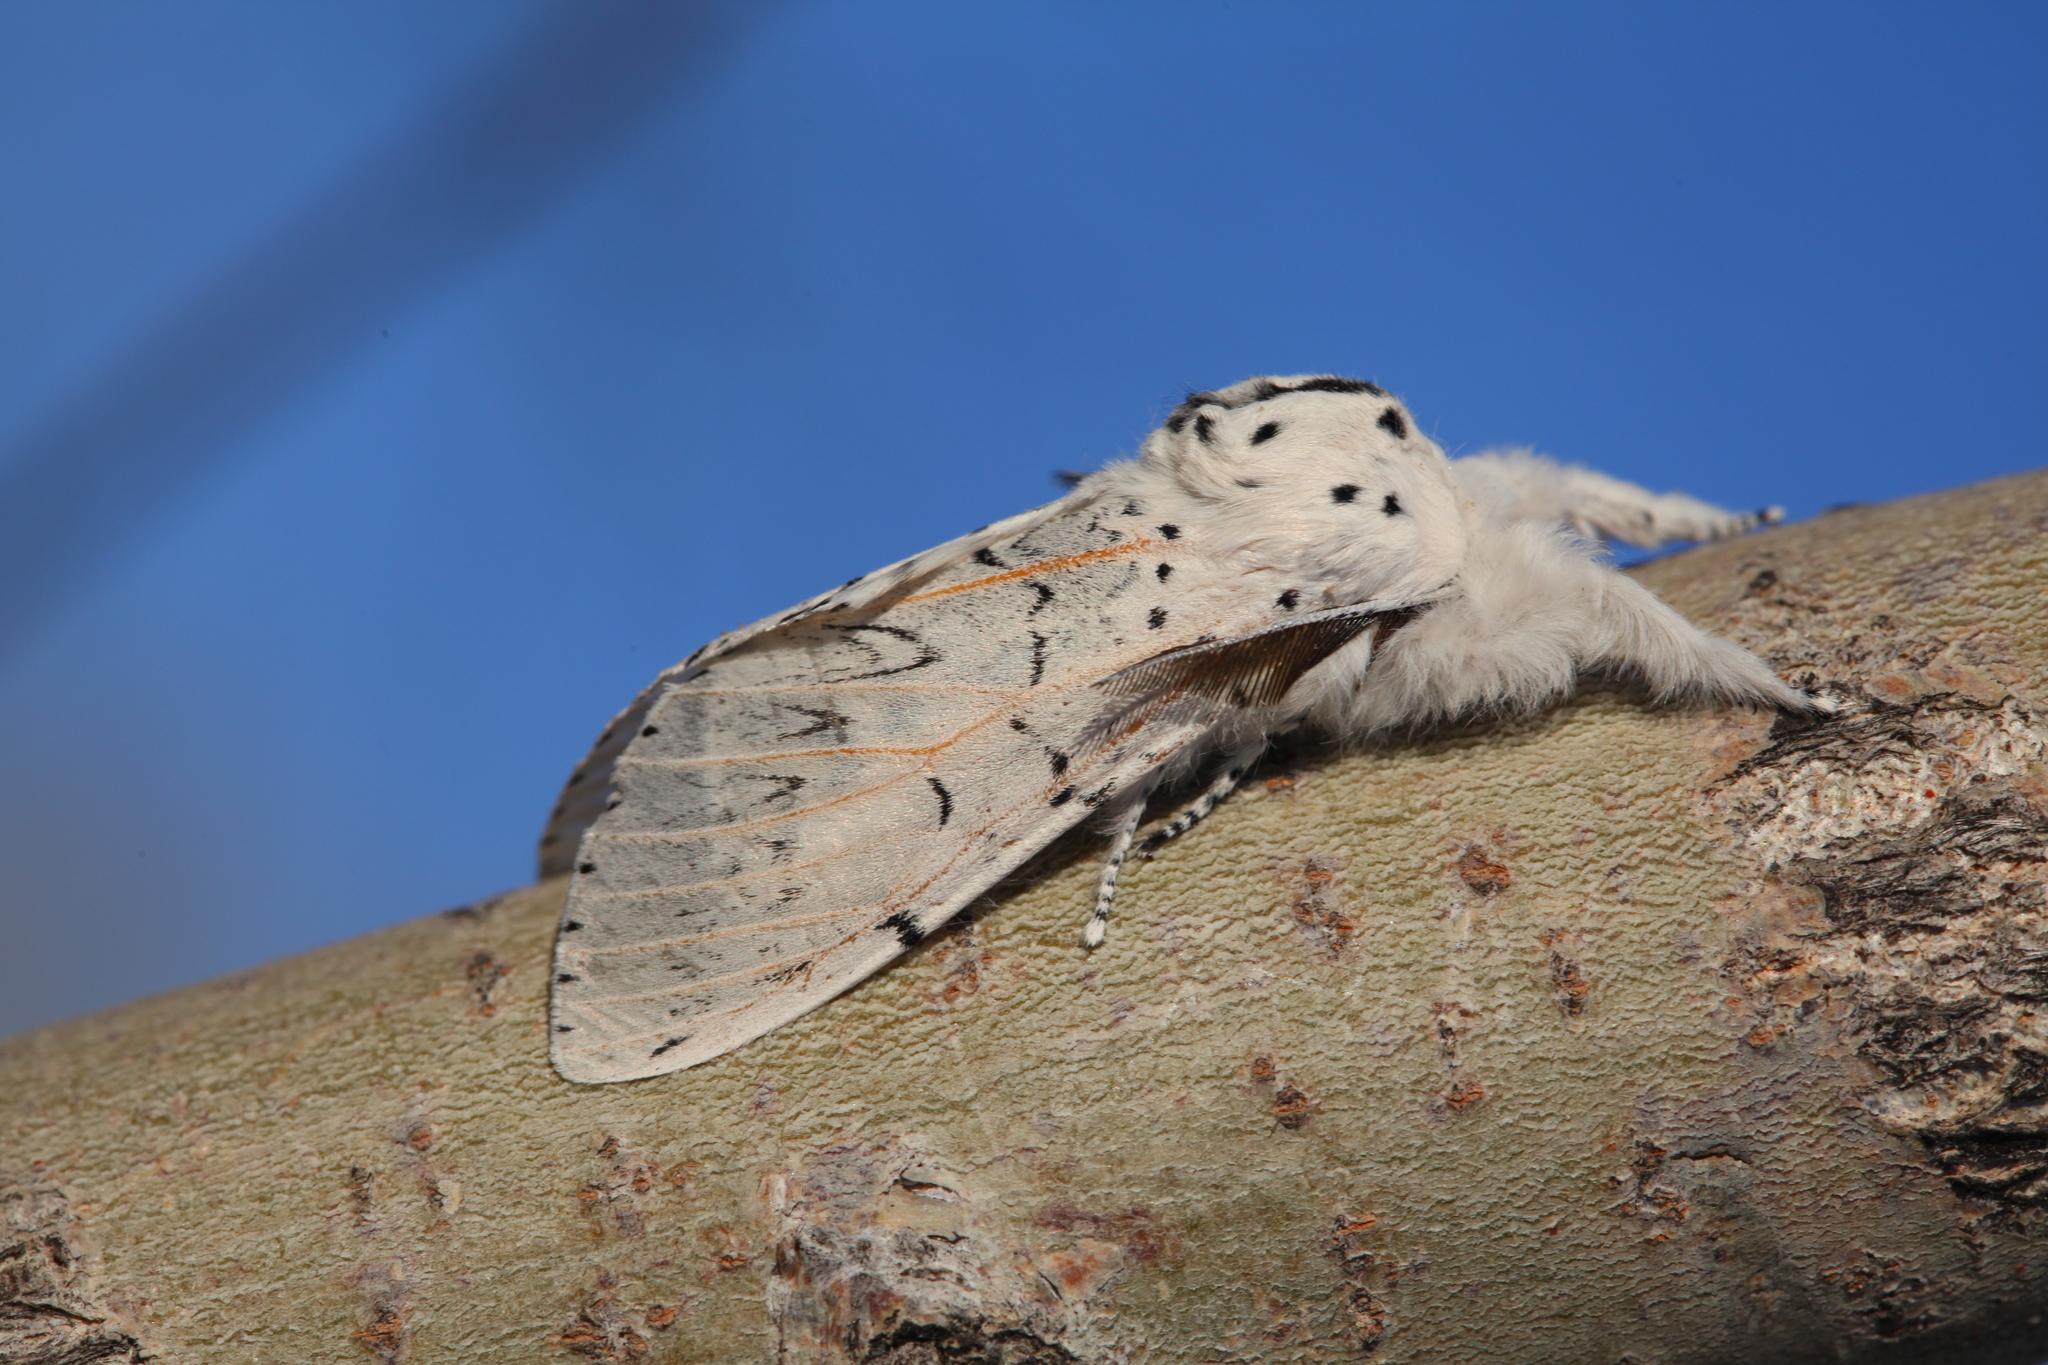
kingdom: Animalia
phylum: Arthropoda
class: Insecta
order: Lepidoptera
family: Notodontidae
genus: Cerura
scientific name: Cerura przewalskii
